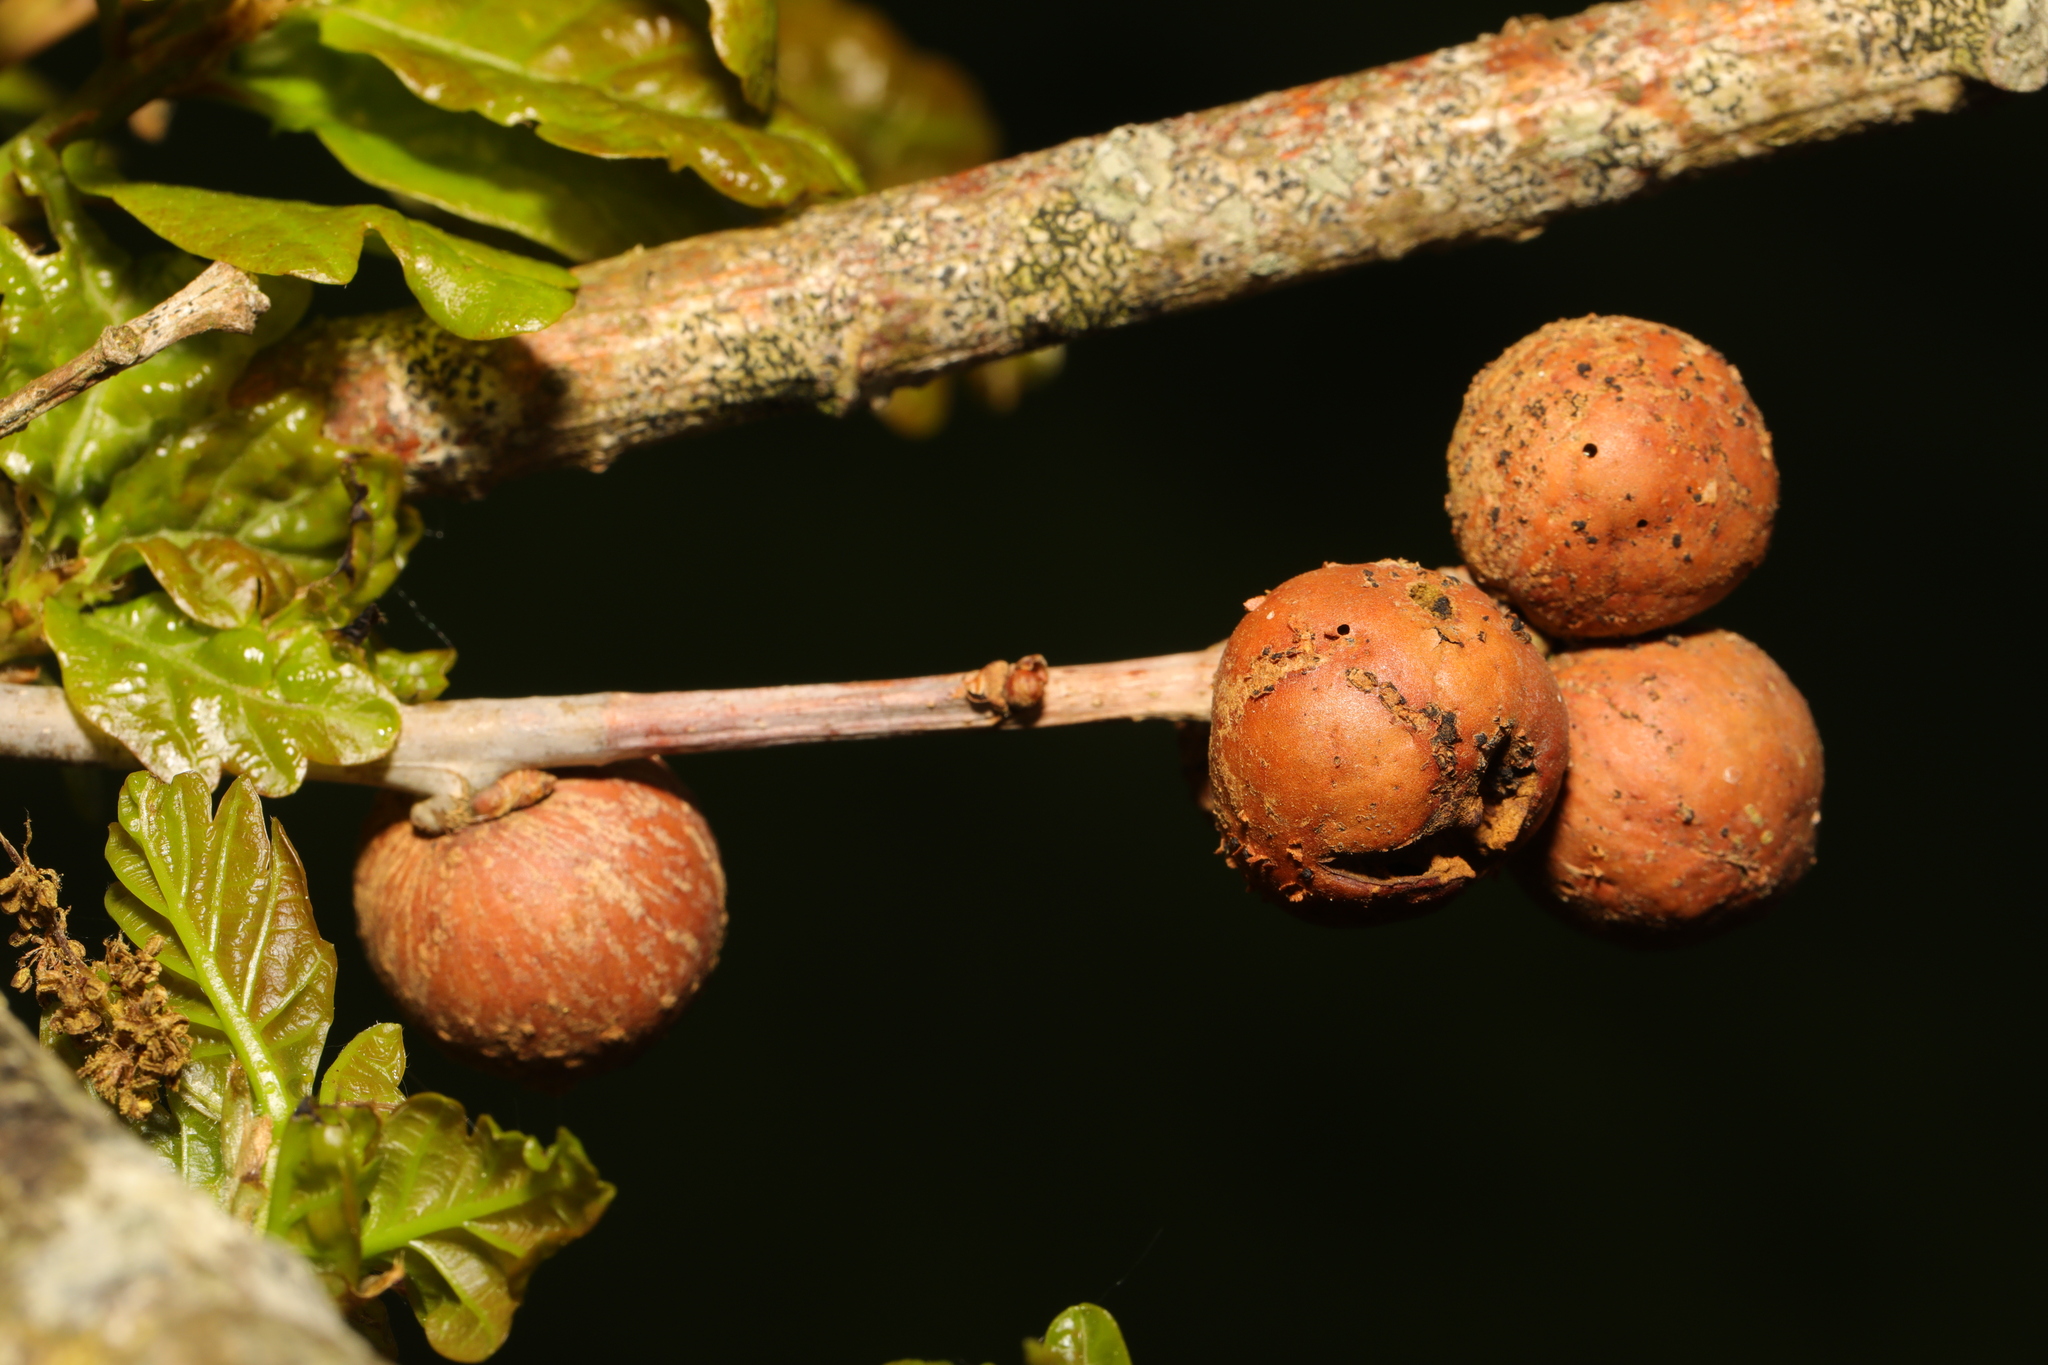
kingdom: Animalia
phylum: Arthropoda
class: Insecta
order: Hymenoptera
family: Cynipidae
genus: Andricus
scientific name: Andricus kollari
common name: Marble gall
